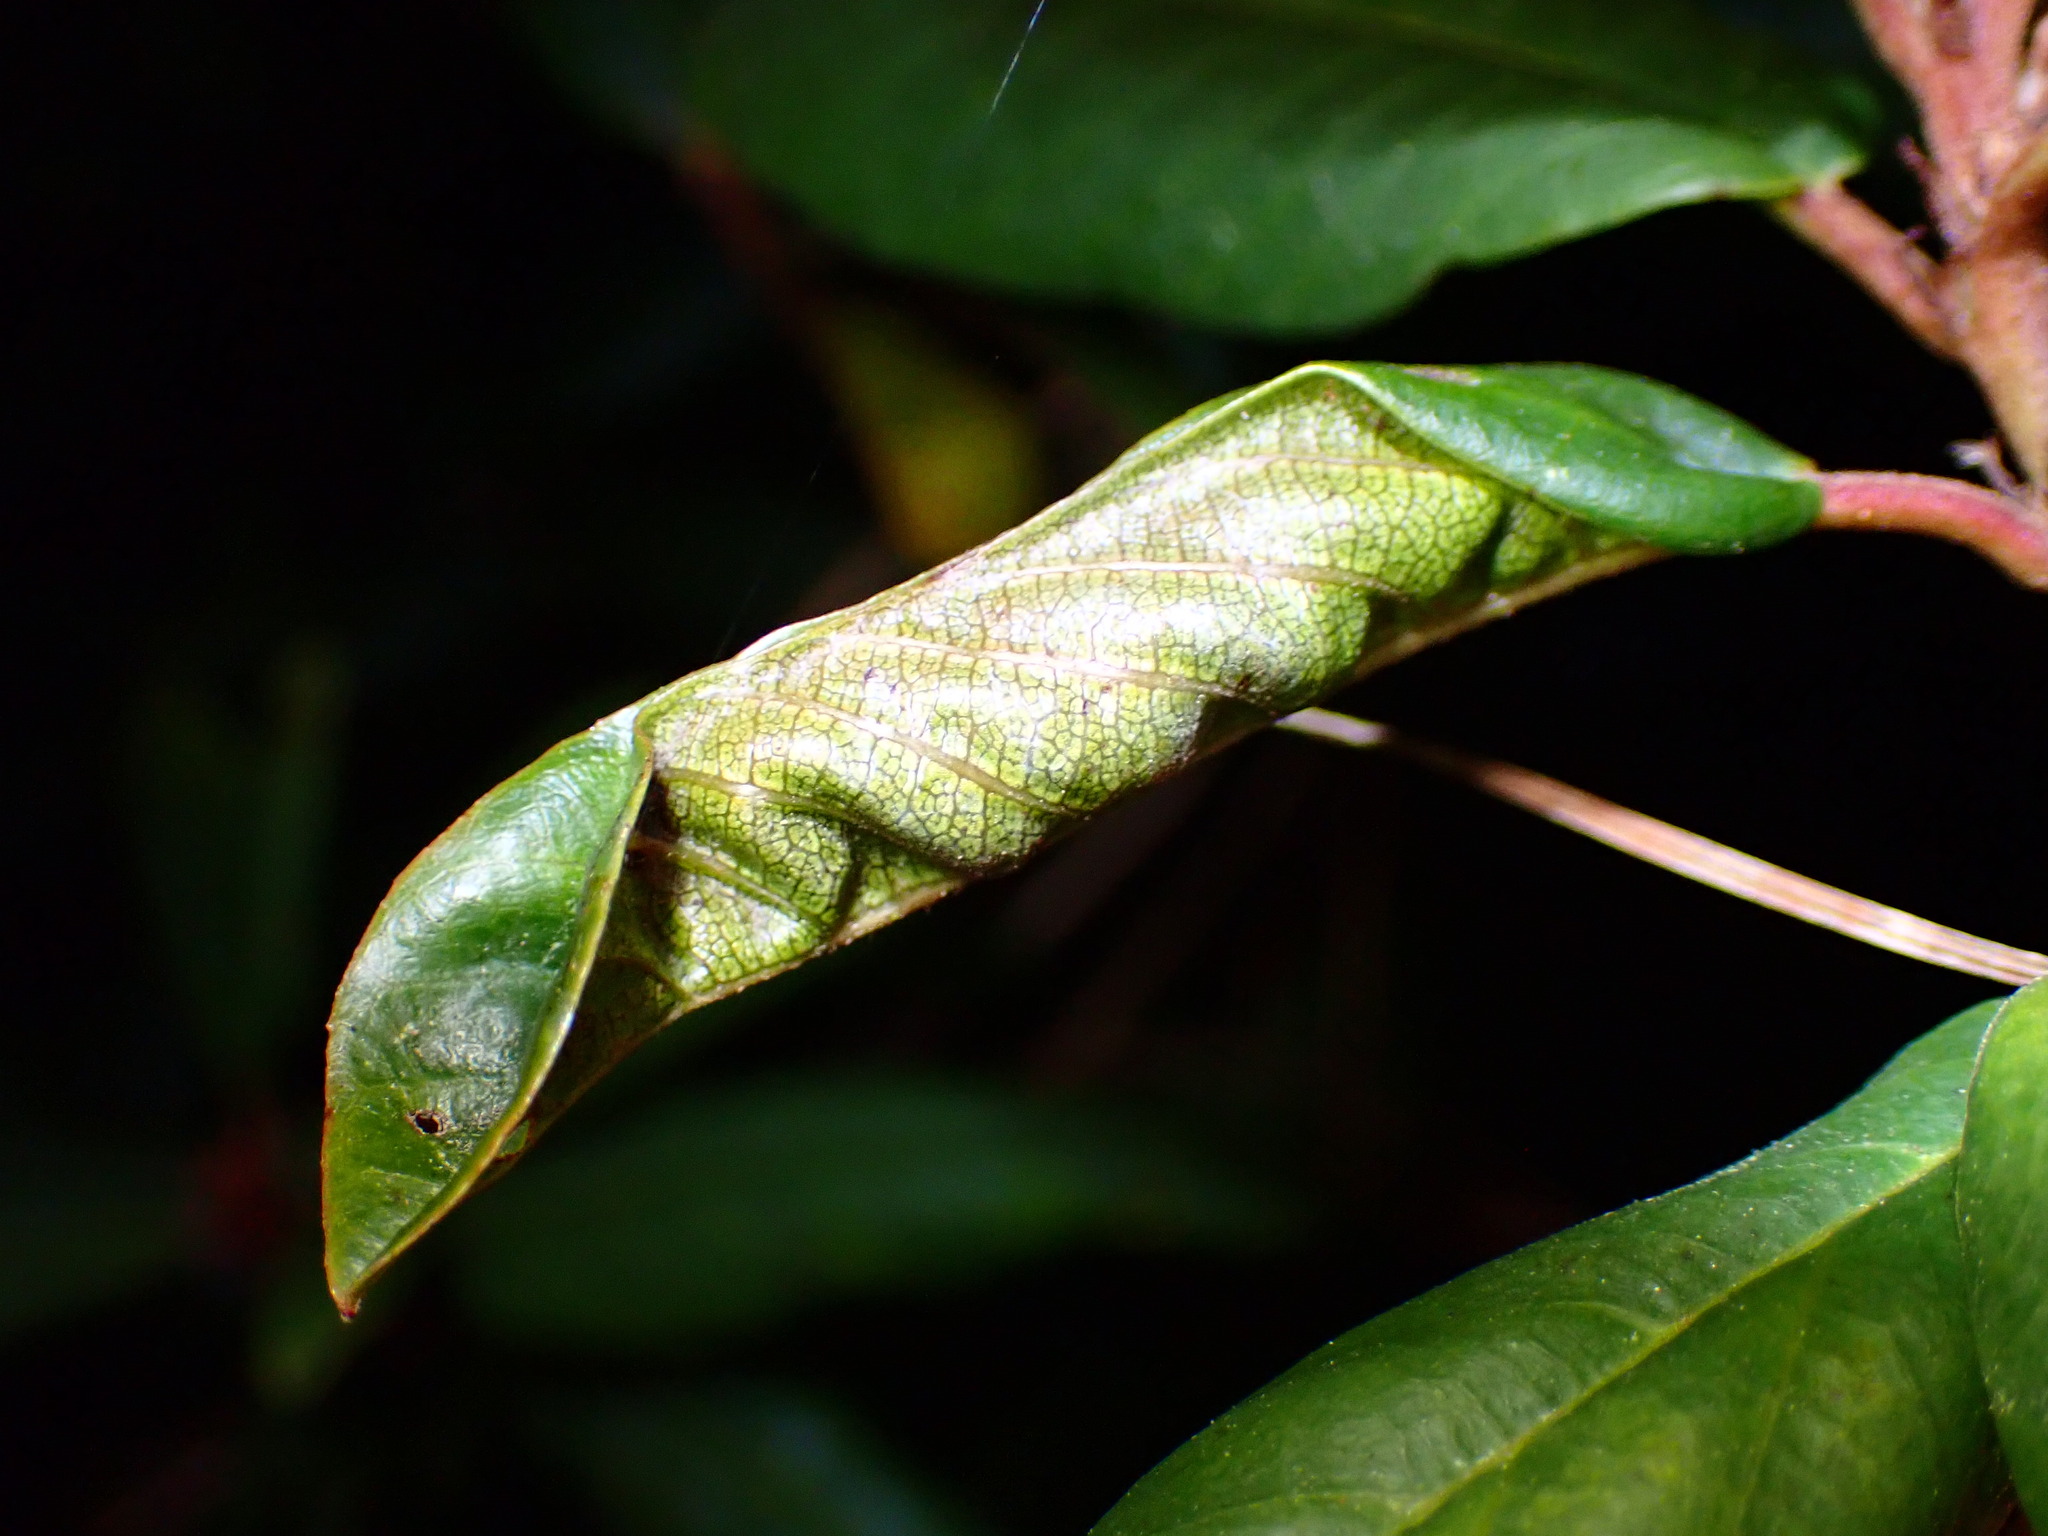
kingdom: Animalia
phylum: Arthropoda
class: Insecta
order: Lepidoptera
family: Cosmopterigidae
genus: Sorhagenia
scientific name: Sorhagenia nimbosus
